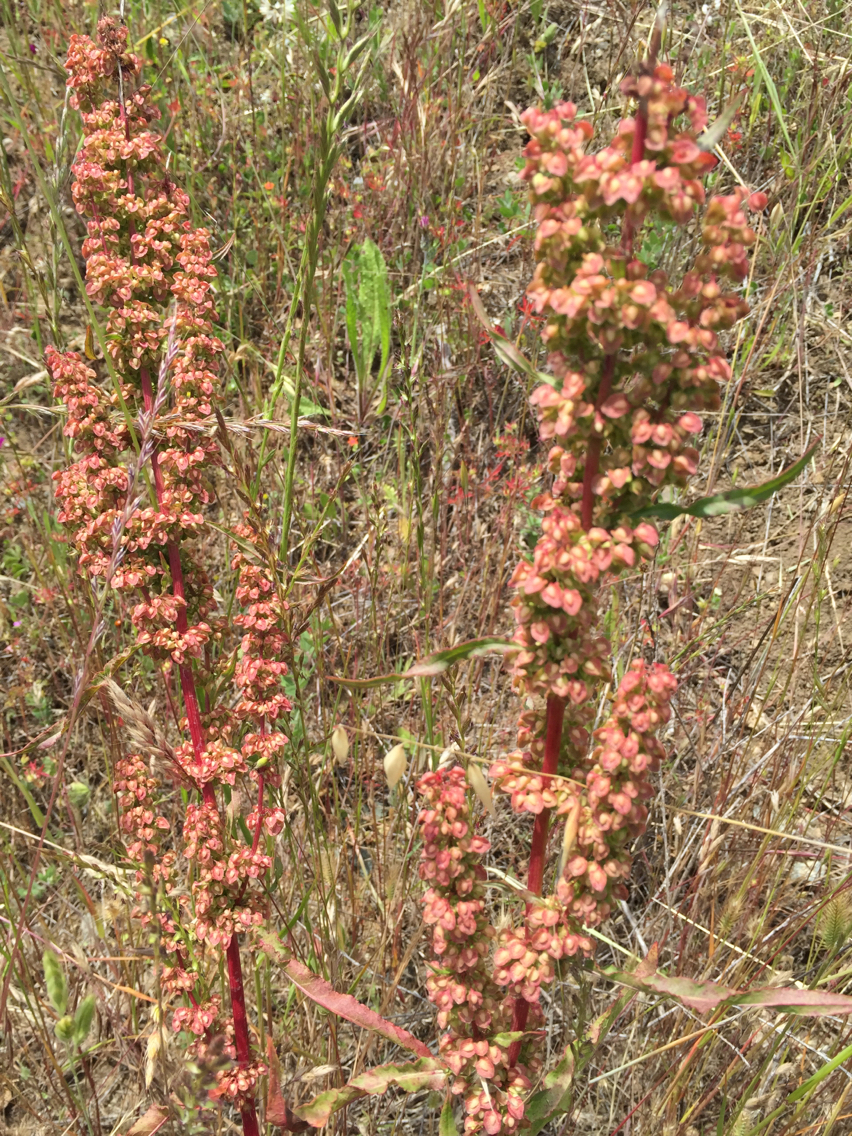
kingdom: Plantae
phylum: Tracheophyta
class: Magnoliopsida
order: Caryophyllales
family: Polygonaceae
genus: Rumex
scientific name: Rumex crispus
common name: Curled dock
